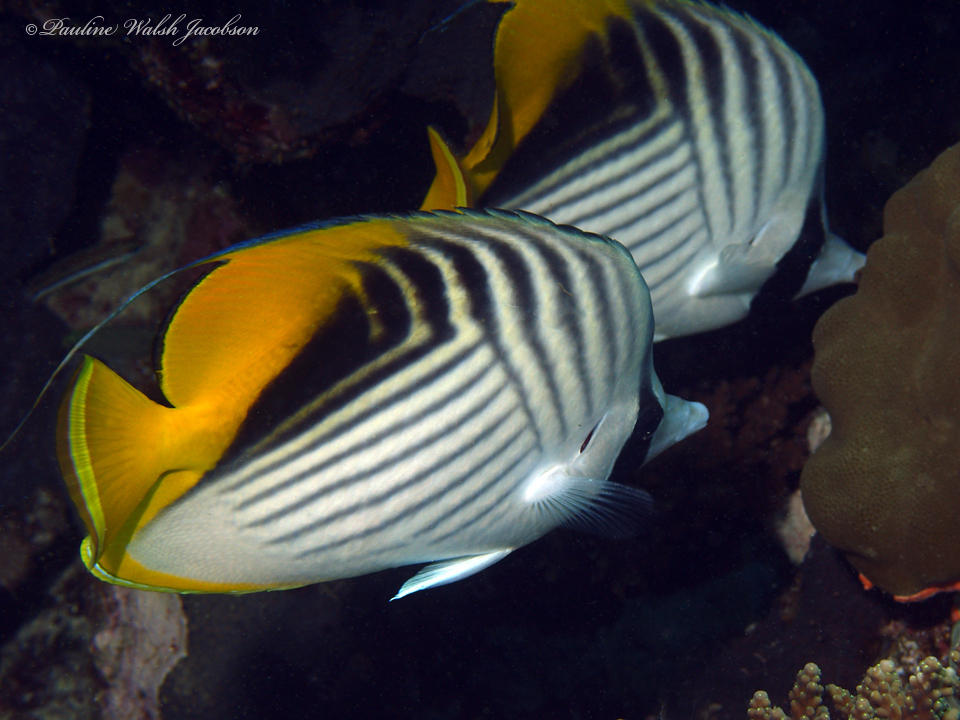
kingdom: Animalia
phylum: Chordata
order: Perciformes
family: Chaetodontidae
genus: Chaetodon
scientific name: Chaetodon auriga
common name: Threadfin butterflyfish
